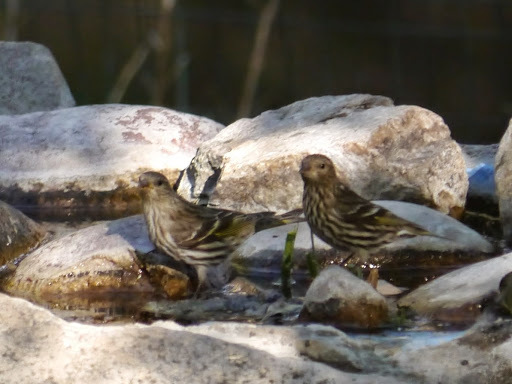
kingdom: Animalia
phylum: Chordata
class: Aves
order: Passeriformes
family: Fringillidae
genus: Spinus
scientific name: Spinus pinus
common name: Pine siskin
